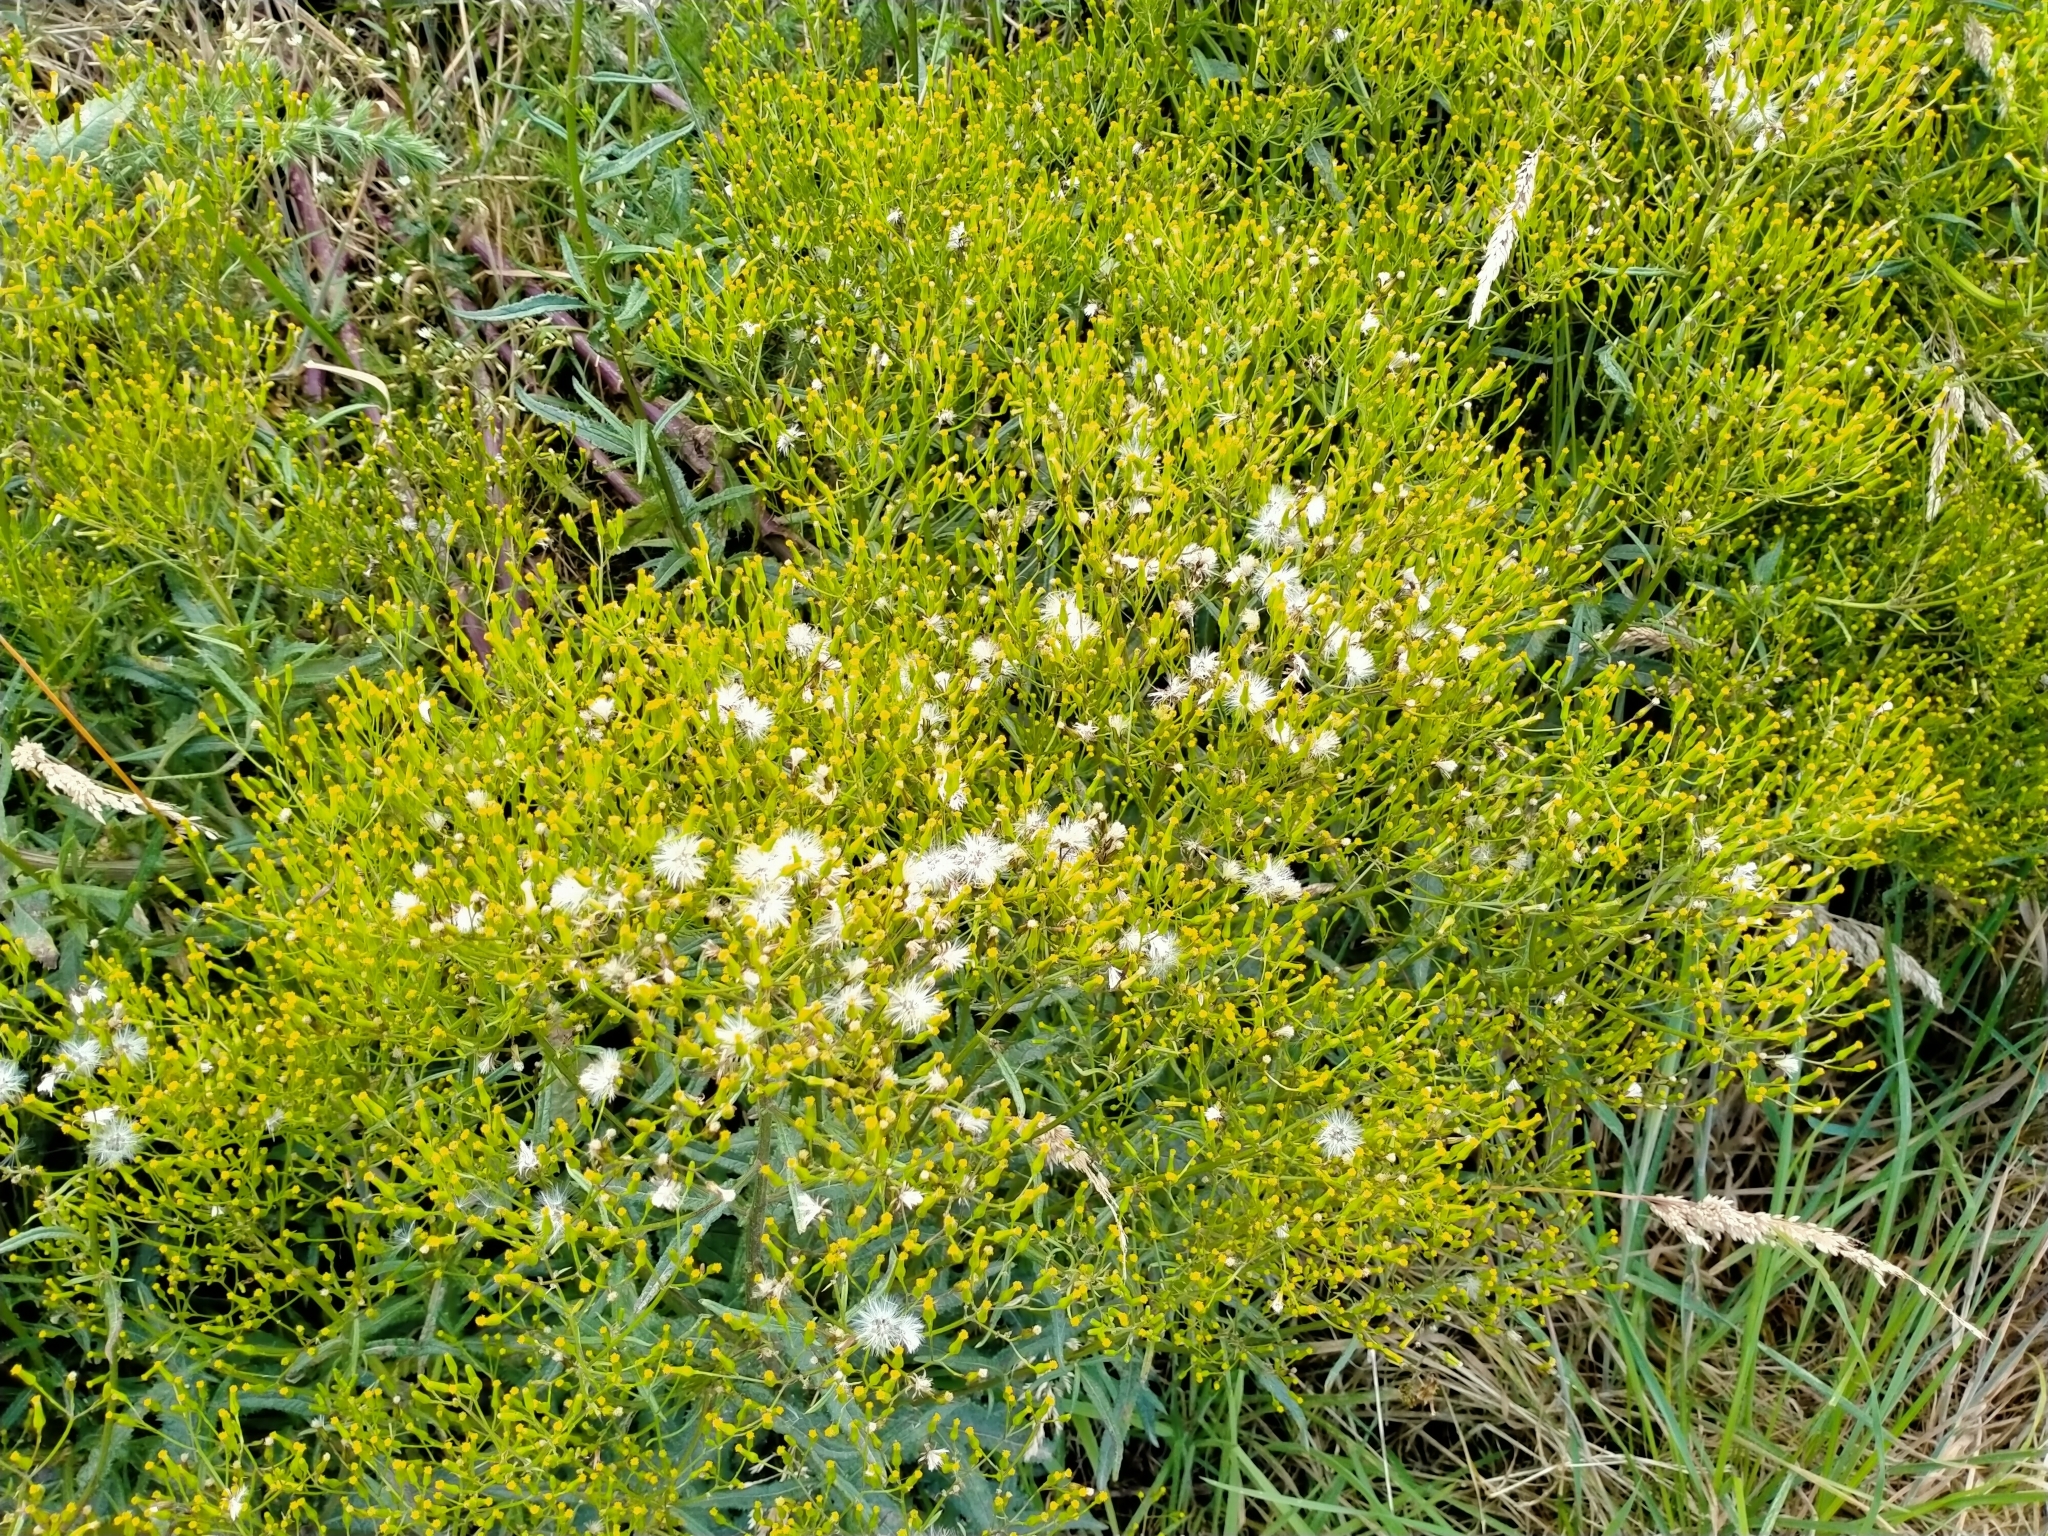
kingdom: Plantae
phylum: Tracheophyta
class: Magnoliopsida
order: Asterales
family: Asteraceae
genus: Senecio
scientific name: Senecio minimus
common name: Toothed fireweed
